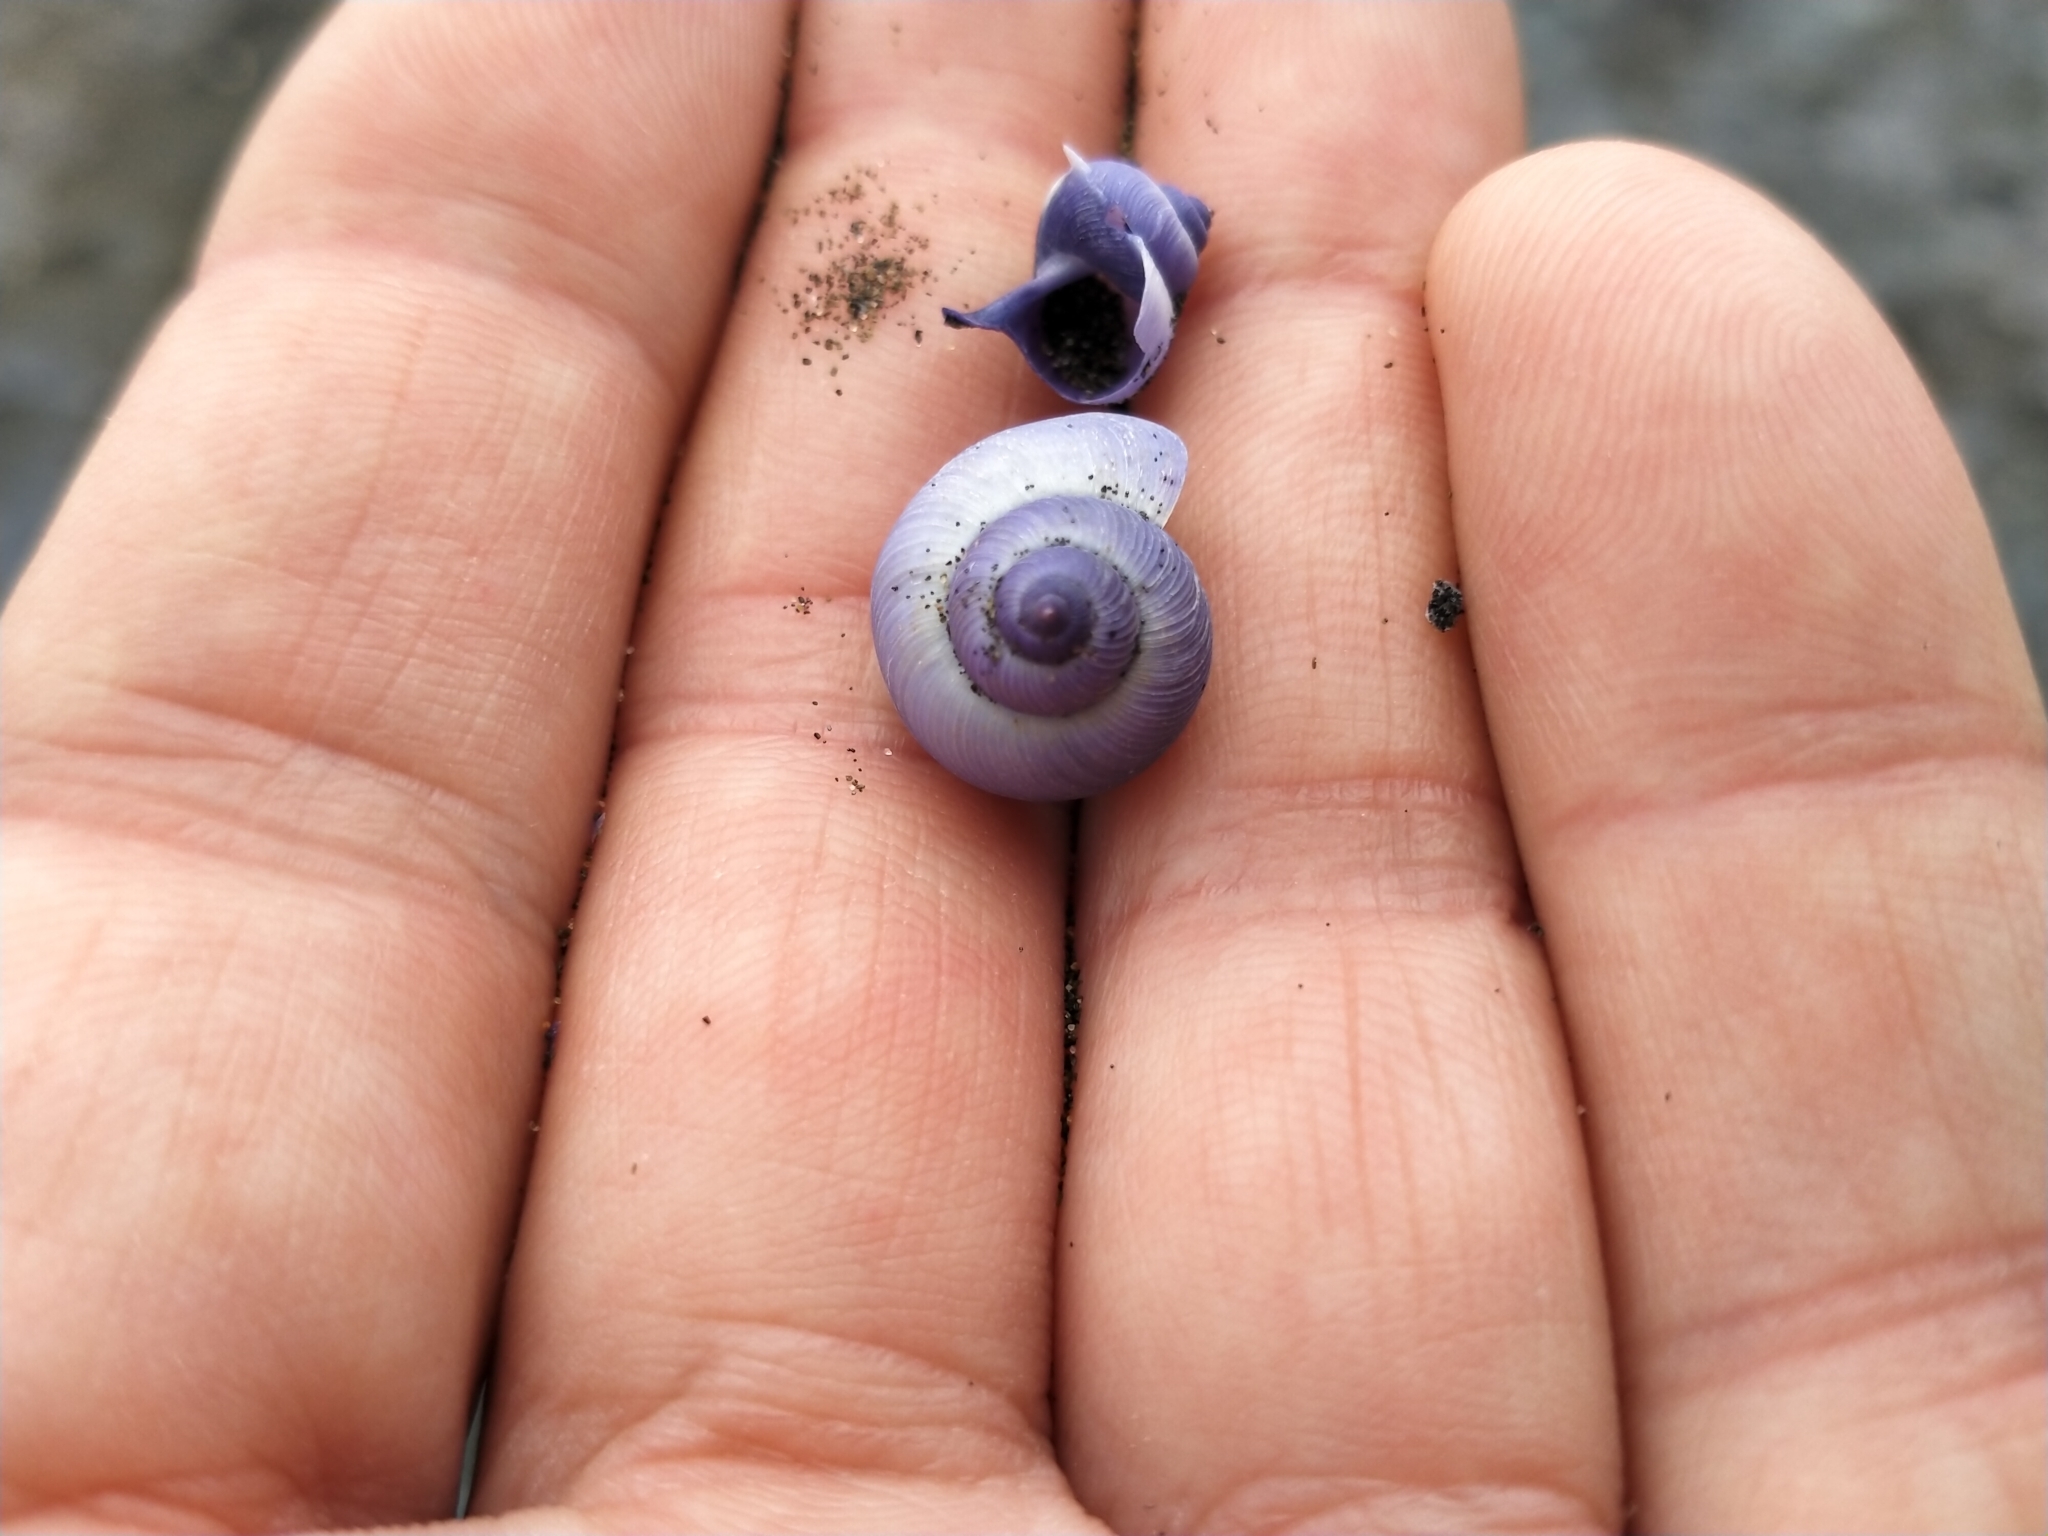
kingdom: Animalia
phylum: Mollusca
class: Gastropoda
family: Epitoniidae
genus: Janthina
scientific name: Janthina exigua
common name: Dwarf janthina
